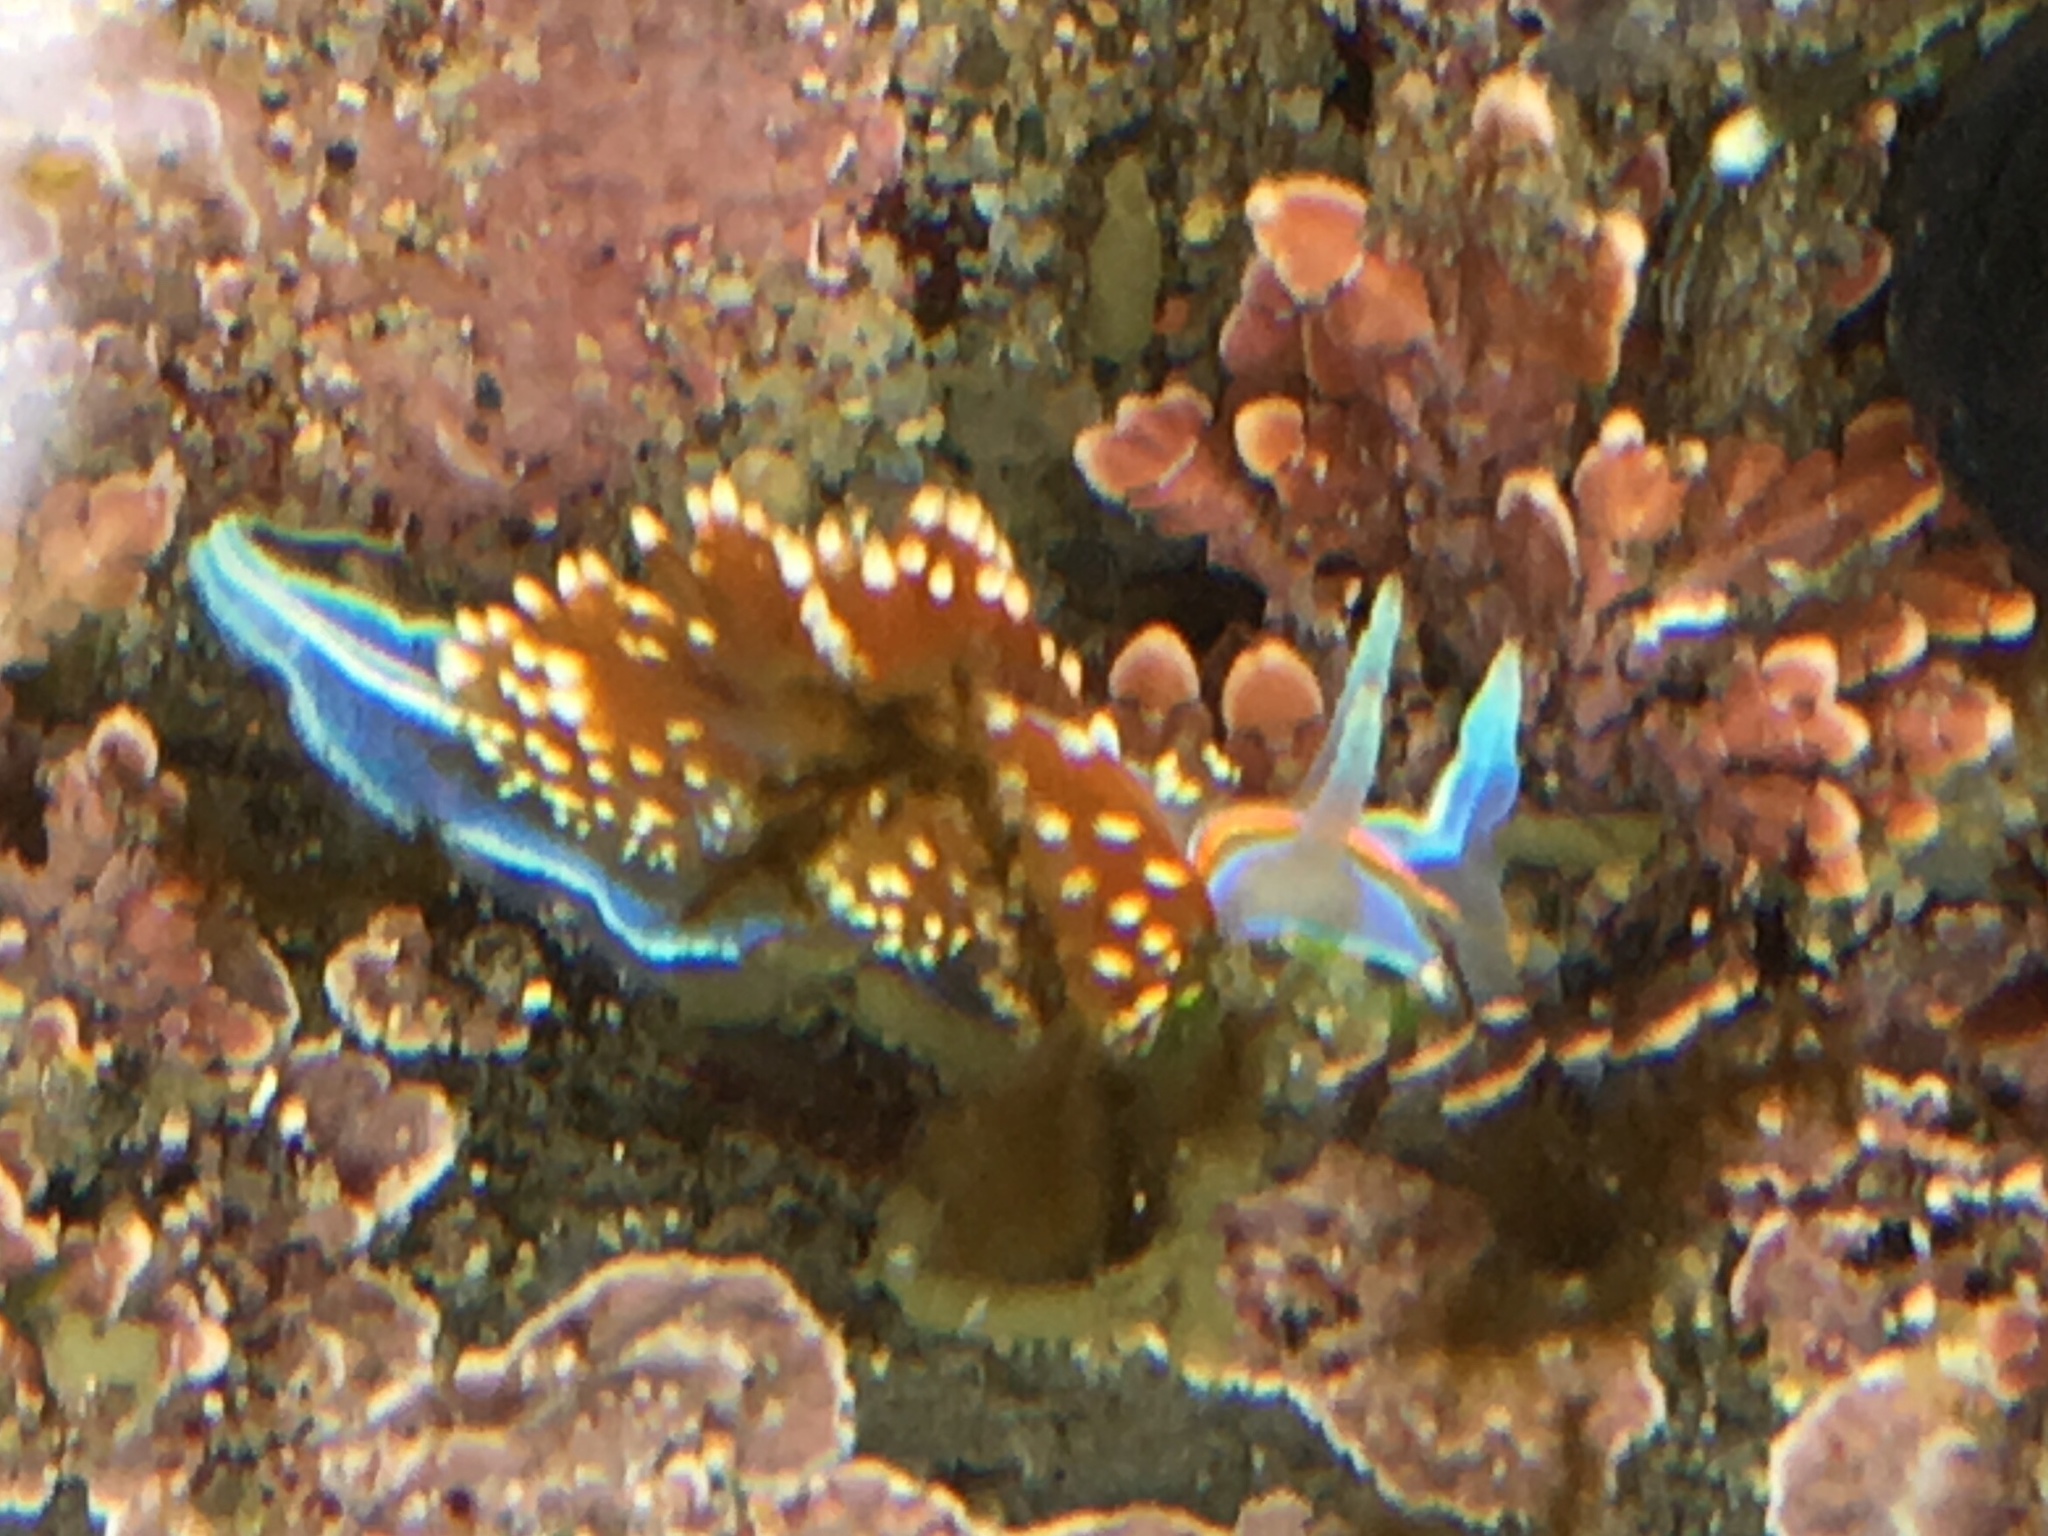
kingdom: Animalia
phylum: Mollusca
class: Gastropoda
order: Nudibranchia
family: Myrrhinidae
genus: Hermissenda
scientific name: Hermissenda opalescens
